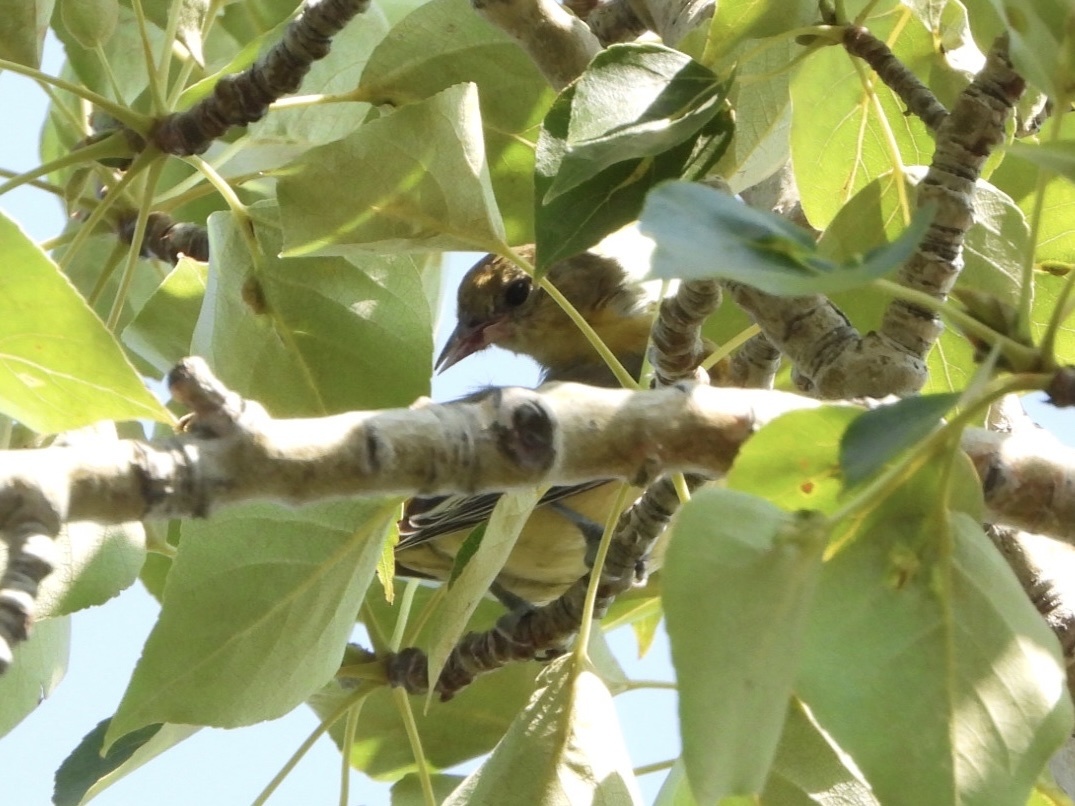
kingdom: Animalia
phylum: Chordata
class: Aves
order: Passeriformes
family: Icteridae
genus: Icterus
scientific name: Icterus galbula
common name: Baltimore oriole
